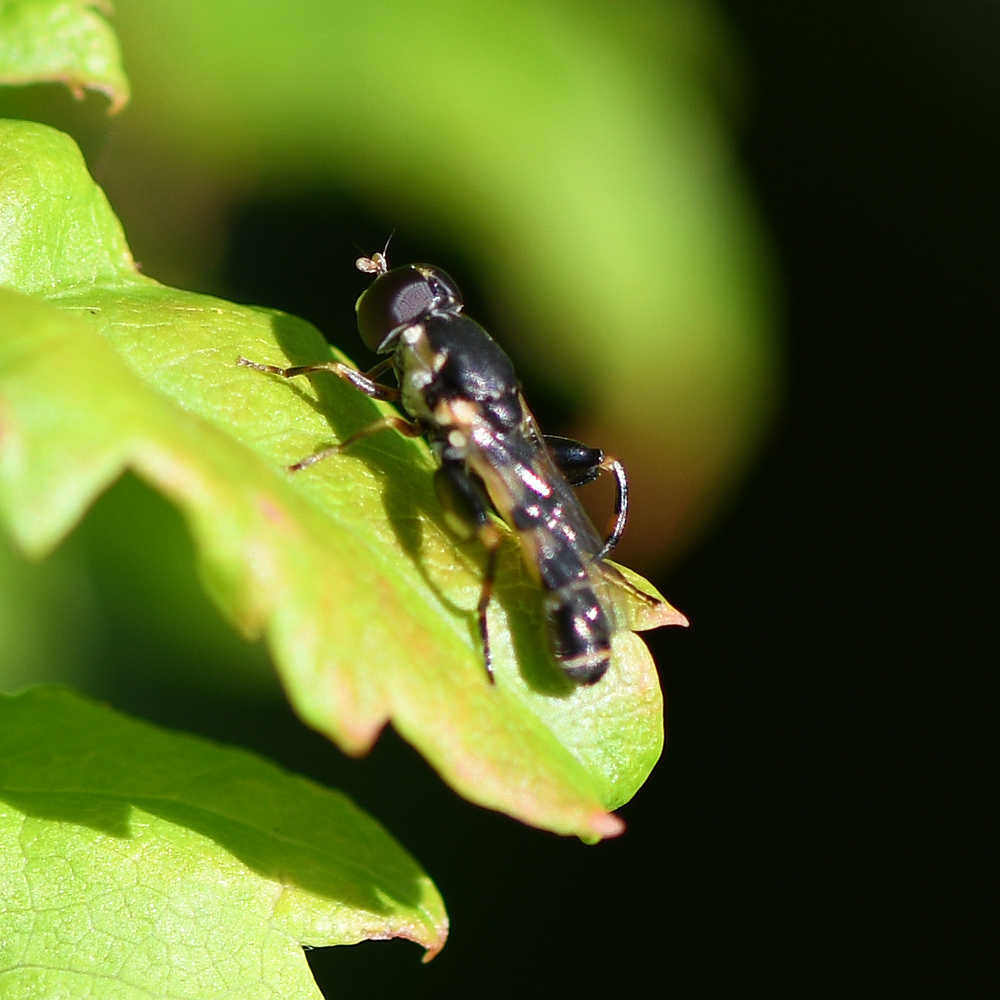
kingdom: Animalia
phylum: Arthropoda
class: Insecta
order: Diptera
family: Syrphidae
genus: Syritta
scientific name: Syritta pipiens
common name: Hover fly
